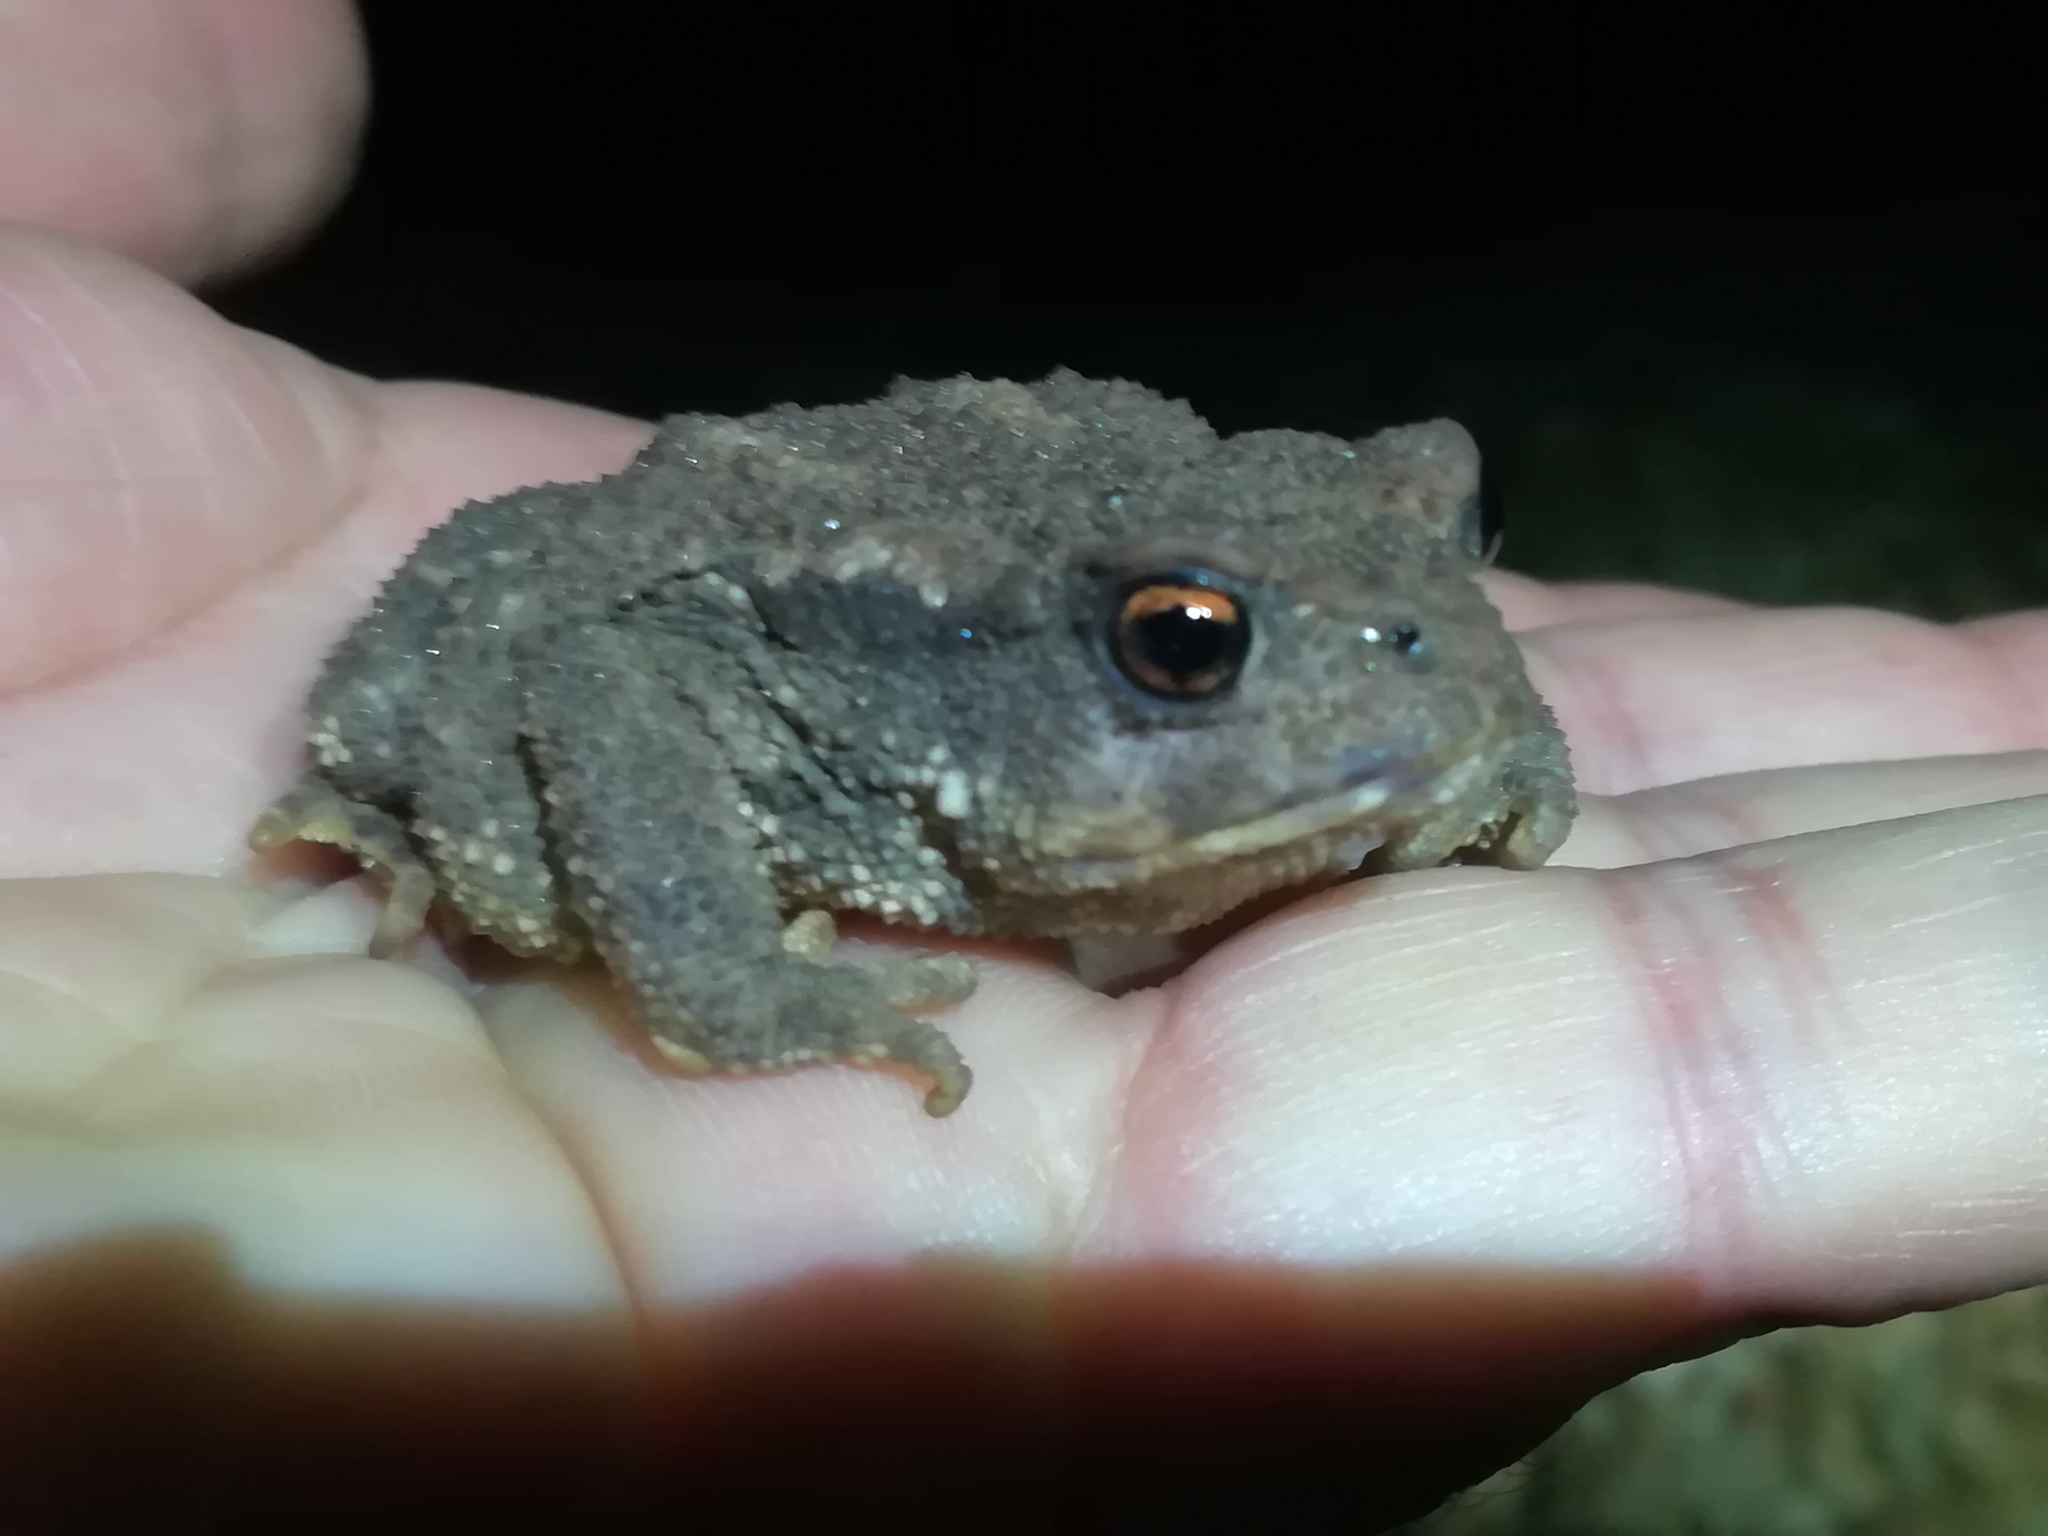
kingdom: Animalia
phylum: Chordata
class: Amphibia
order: Anura
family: Bufonidae
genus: Bufo
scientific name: Bufo spinosus
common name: Western common toad
